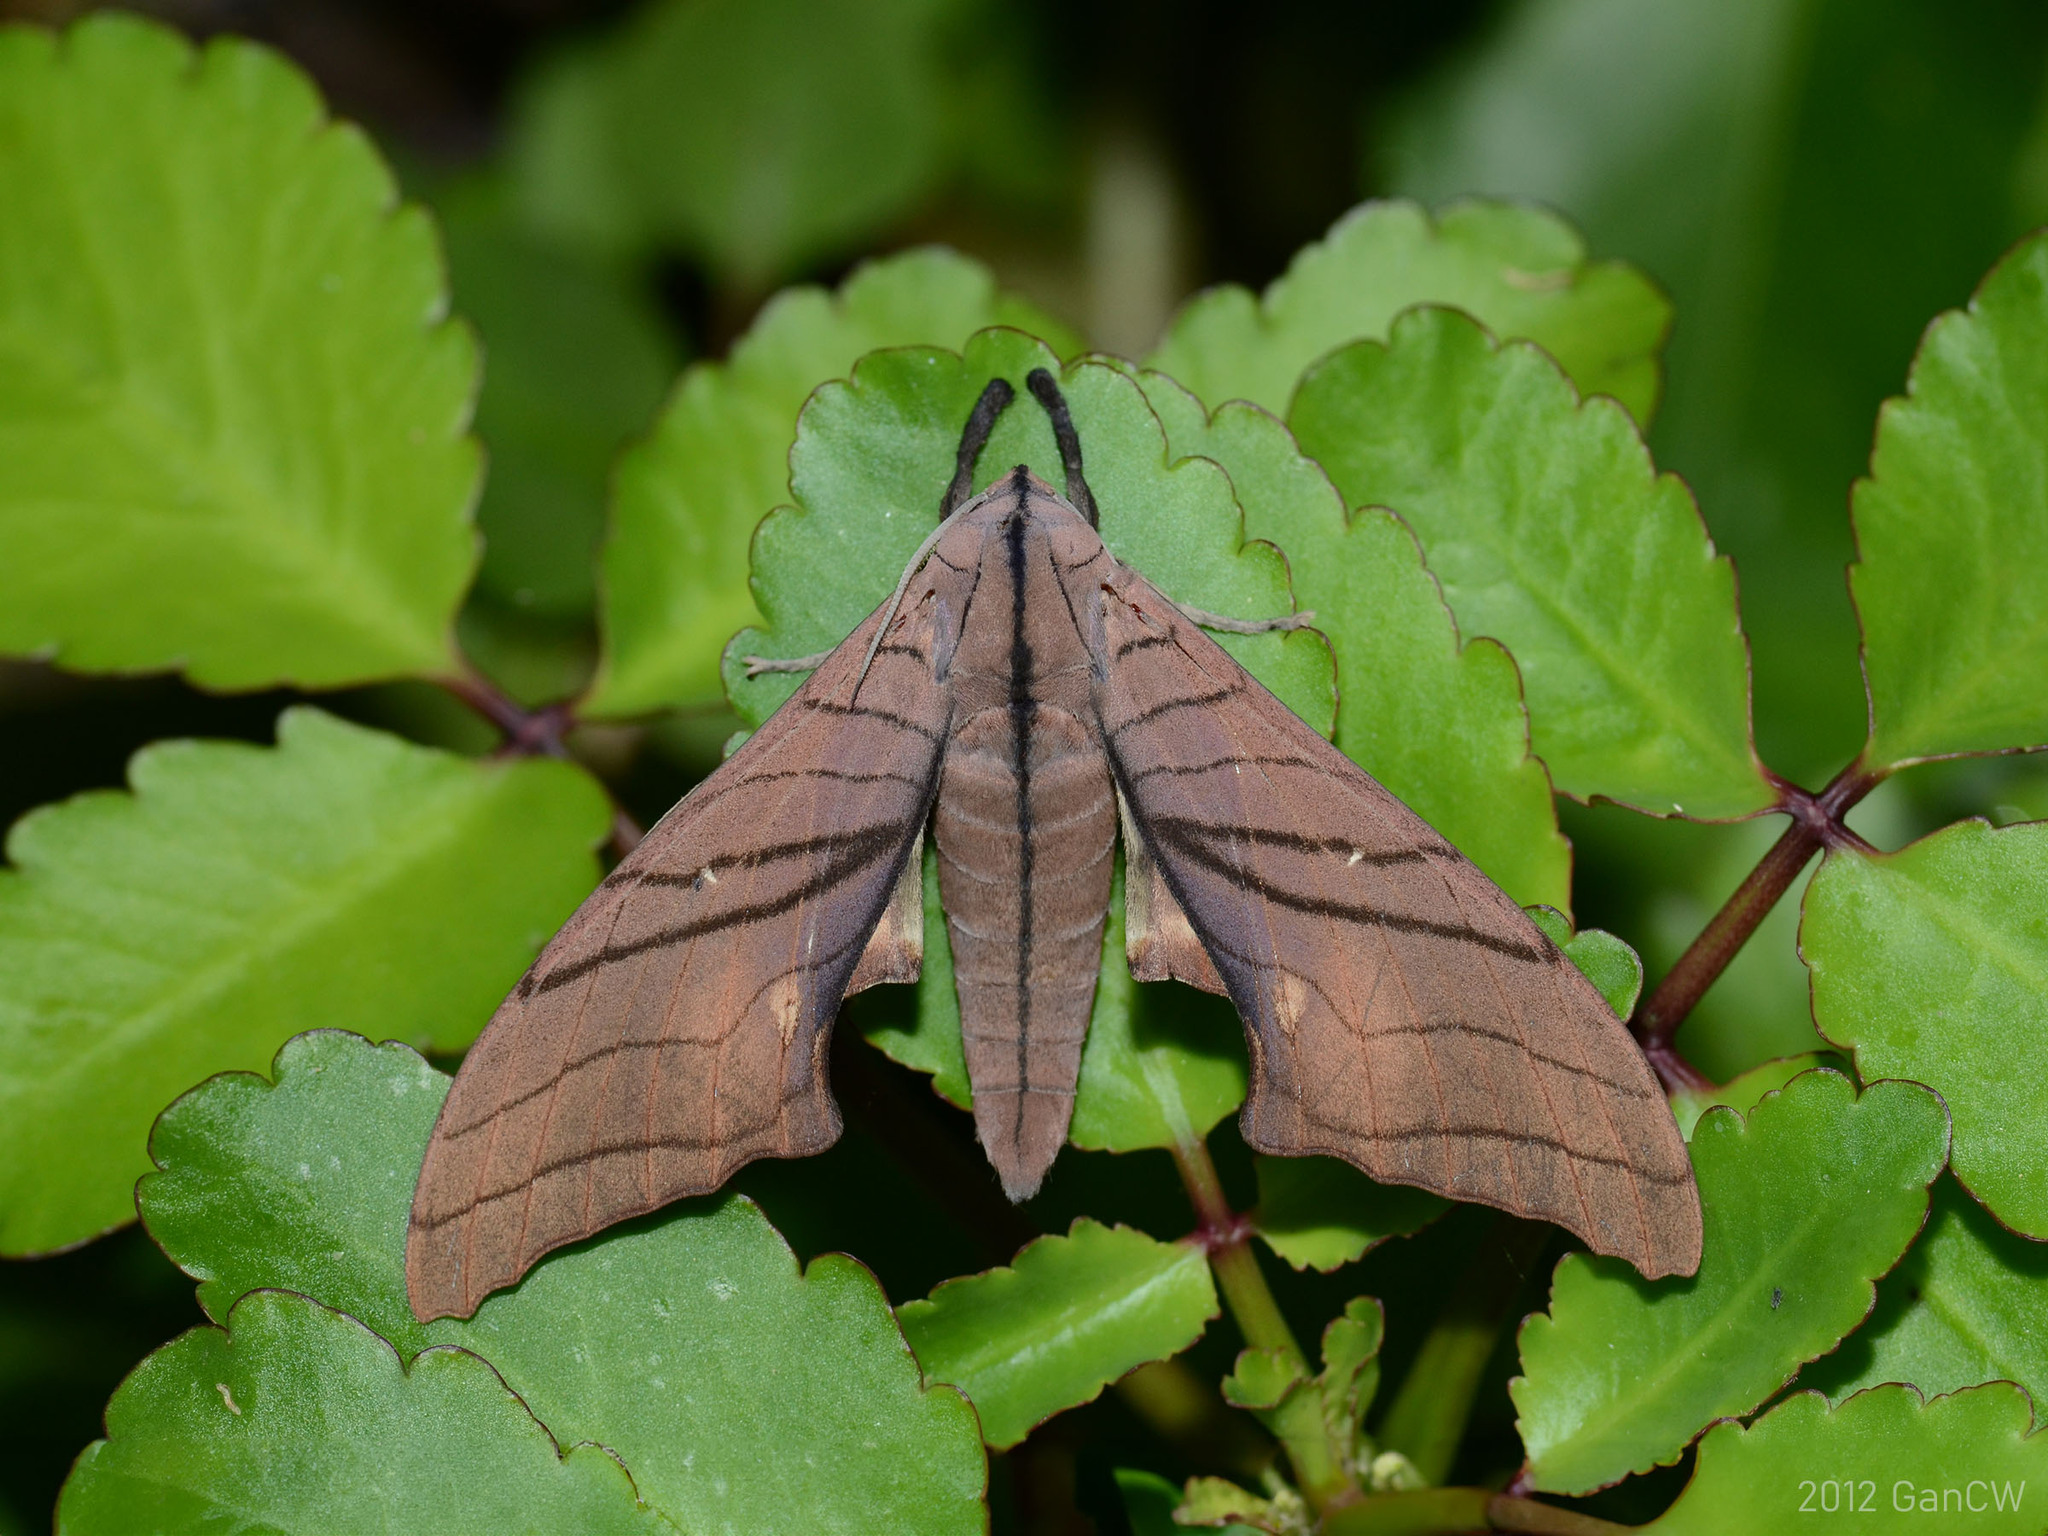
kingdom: Animalia
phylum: Arthropoda
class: Insecta
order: Lepidoptera
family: Sphingidae
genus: Marumba
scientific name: Marumba cristata
